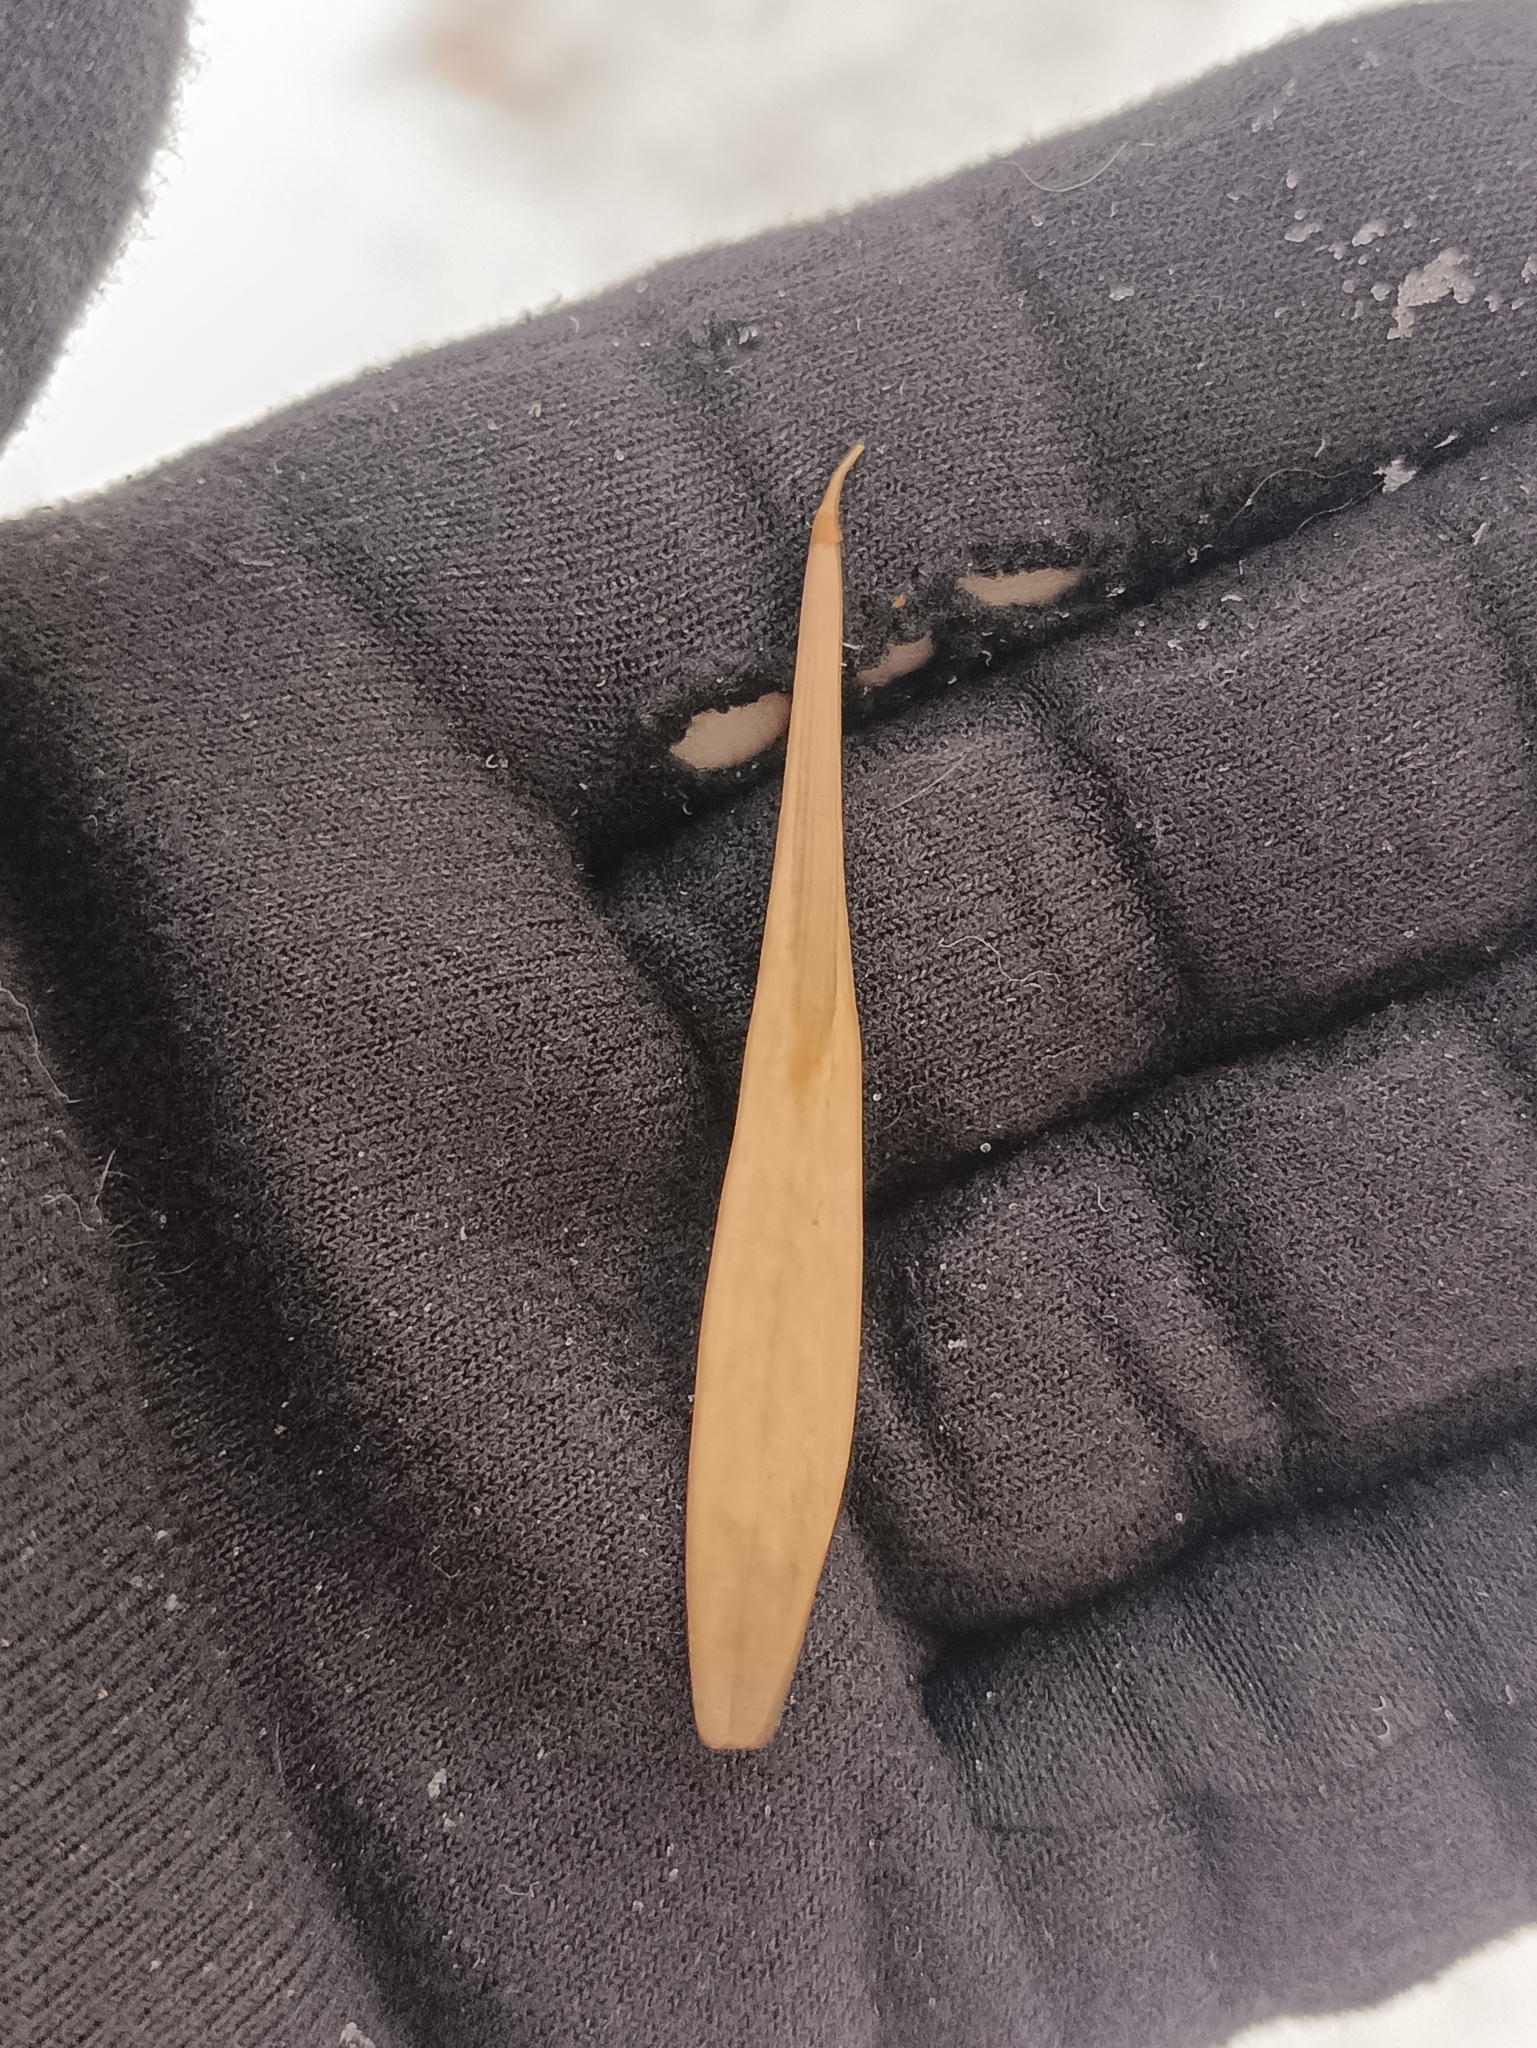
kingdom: Plantae
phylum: Tracheophyta
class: Magnoliopsida
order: Lamiales
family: Oleaceae
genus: Fraxinus
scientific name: Fraxinus pennsylvanica
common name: Green ash
